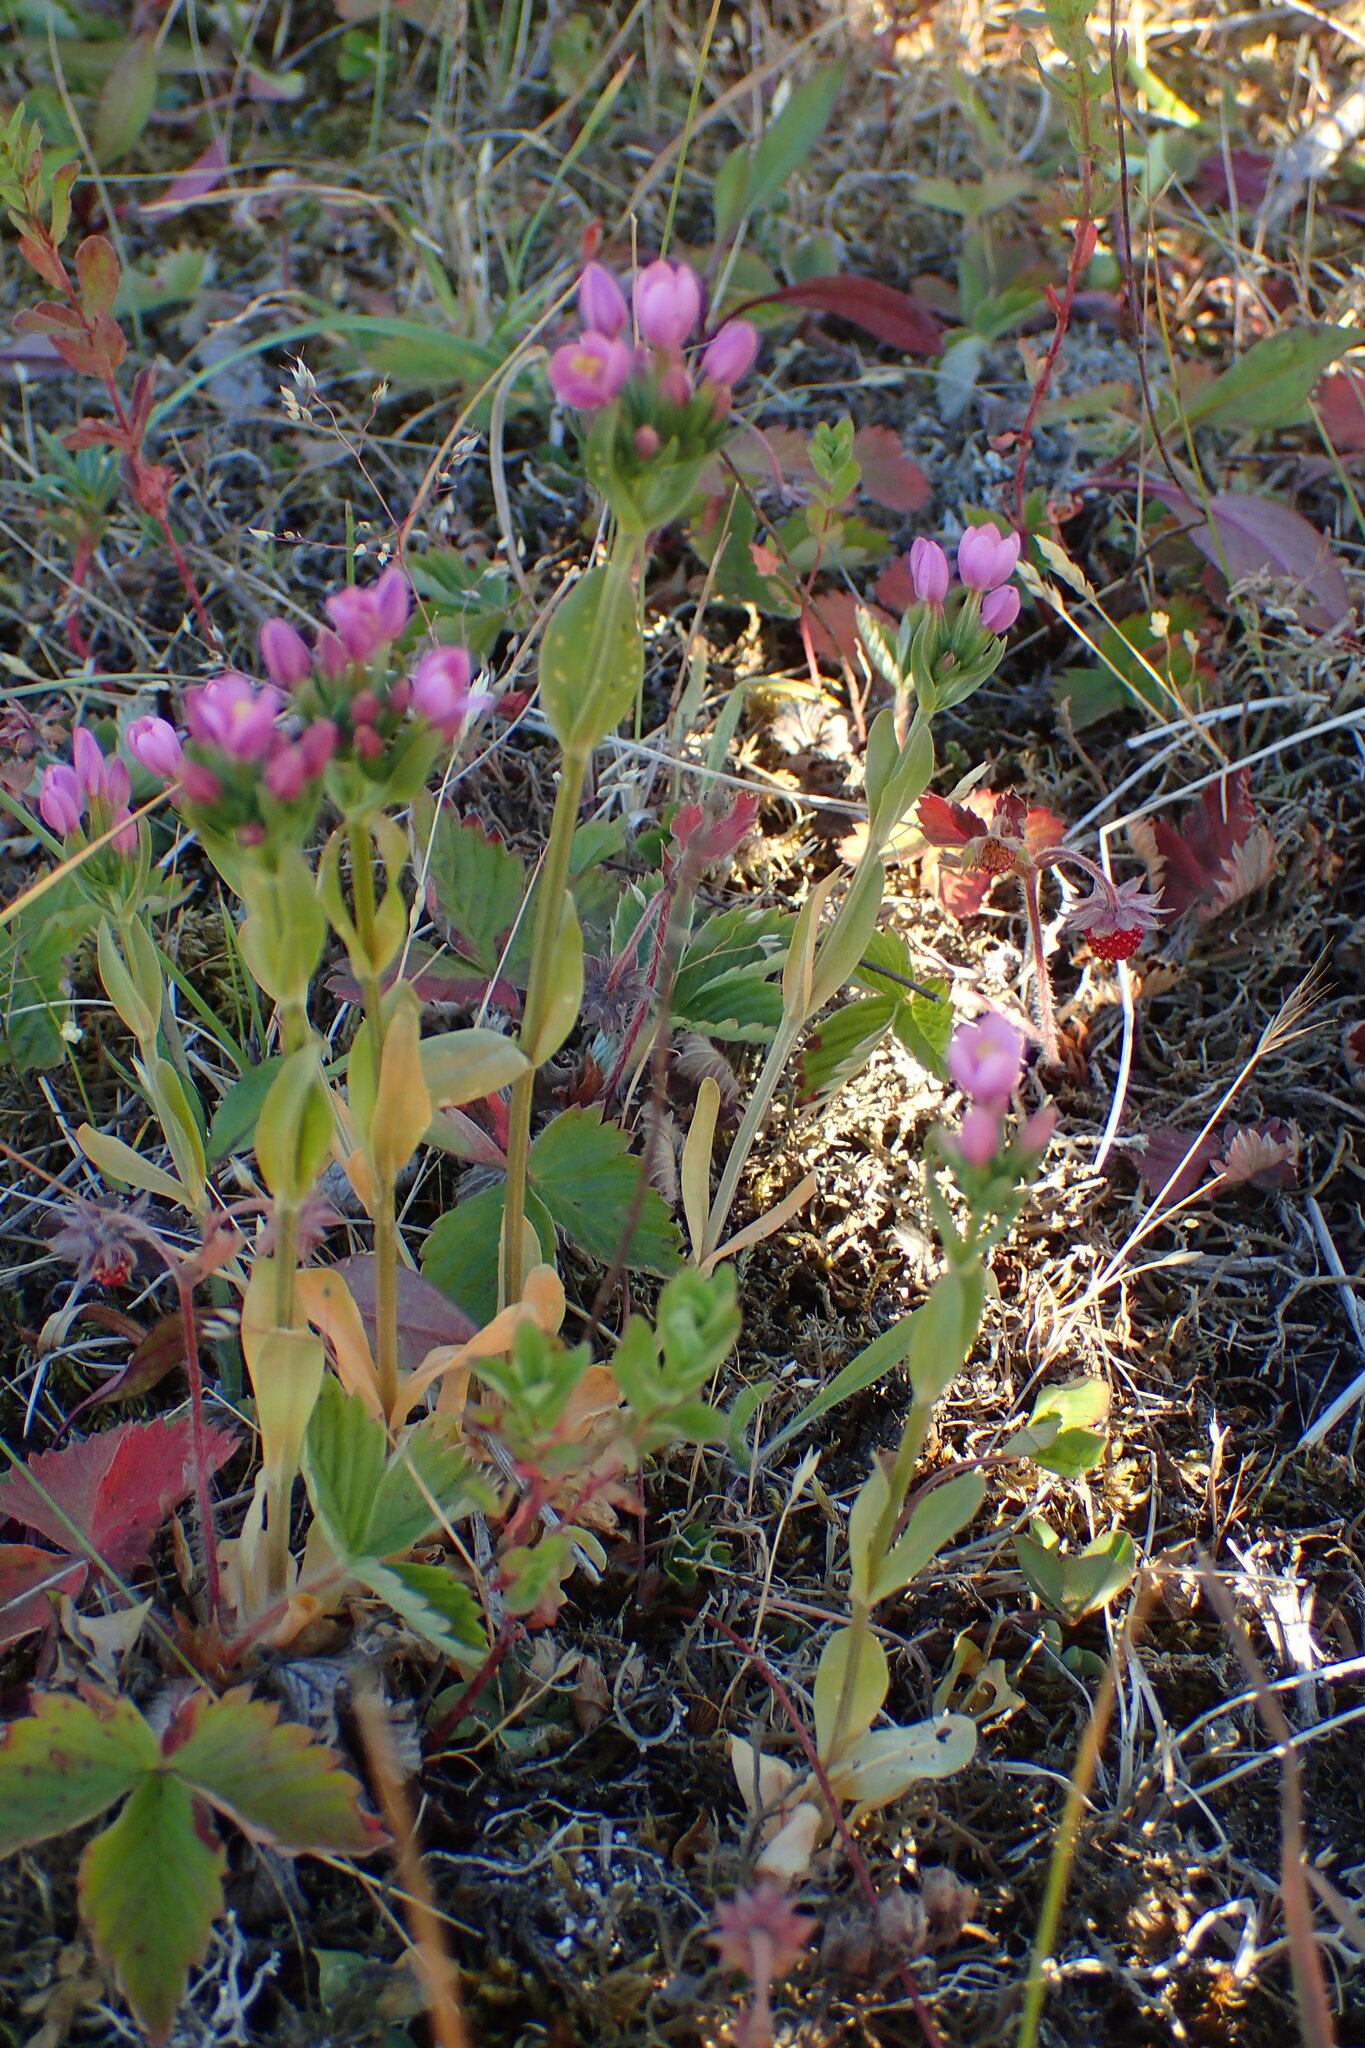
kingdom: Plantae
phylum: Tracheophyta
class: Magnoliopsida
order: Gentianales
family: Gentianaceae
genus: Centaurium
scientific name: Centaurium erythraea
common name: Common centaury
